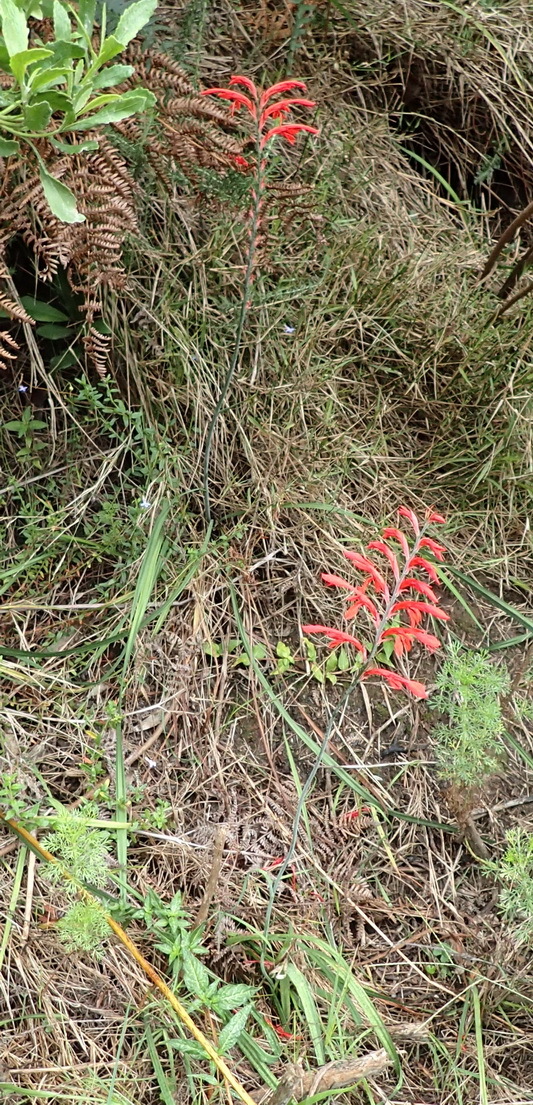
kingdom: Plantae
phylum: Tracheophyta
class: Liliopsida
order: Asparagales
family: Iridaceae
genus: Tritoniopsis
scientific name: Tritoniopsis caffra
